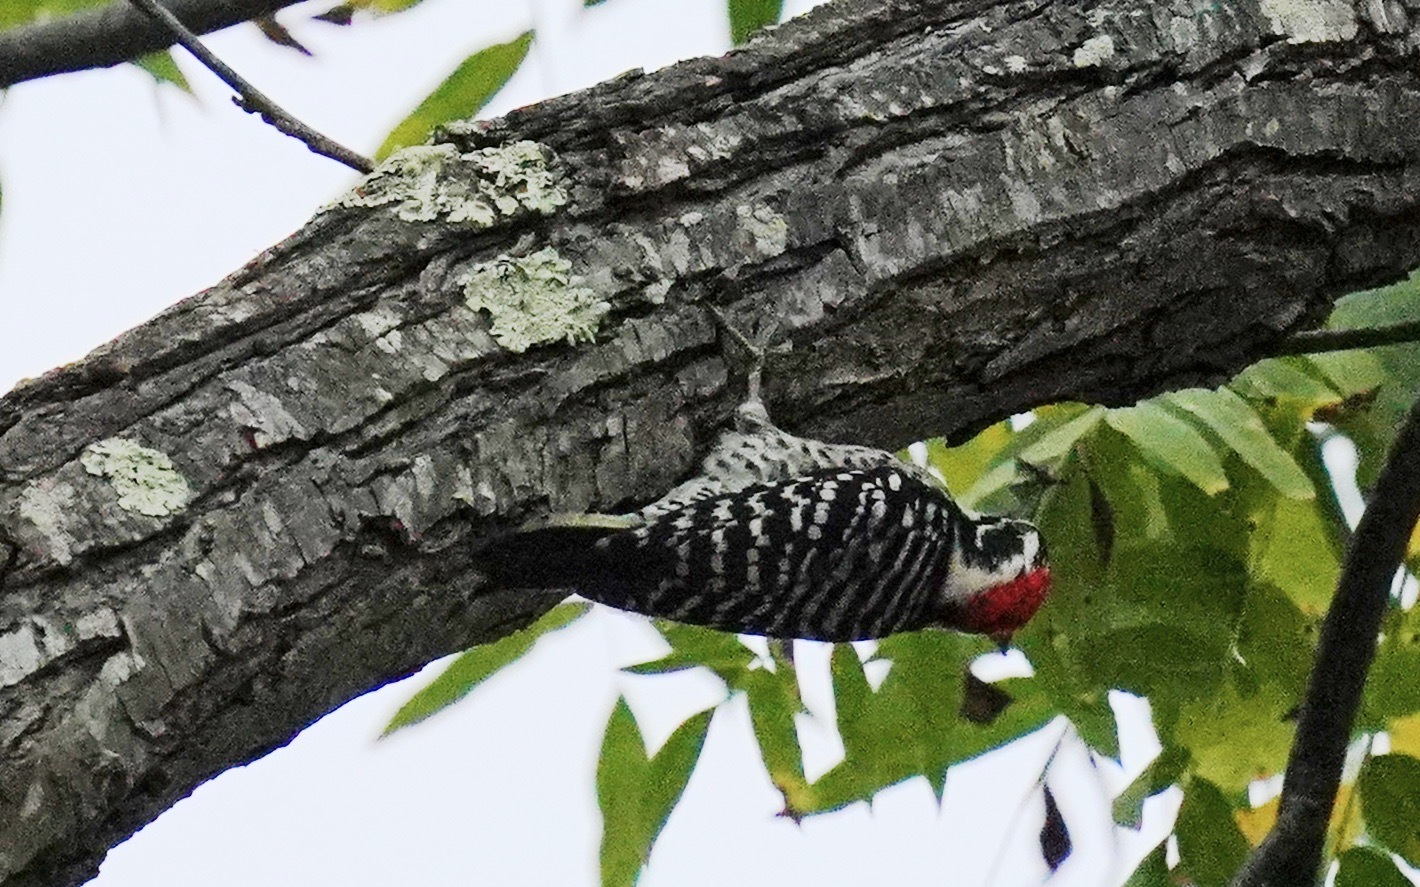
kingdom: Animalia
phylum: Chordata
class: Aves
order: Piciformes
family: Picidae
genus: Dryobates
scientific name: Dryobates nuttallii
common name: Nuttall's woodpecker
